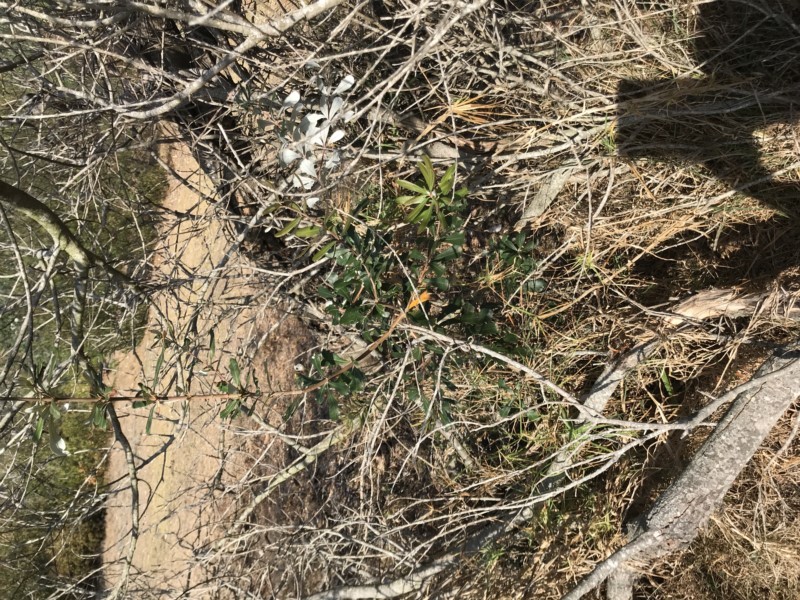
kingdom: Plantae
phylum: Tracheophyta
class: Magnoliopsida
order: Proteales
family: Proteaceae
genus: Banksia
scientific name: Banksia integrifolia
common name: White-honeysuckle
